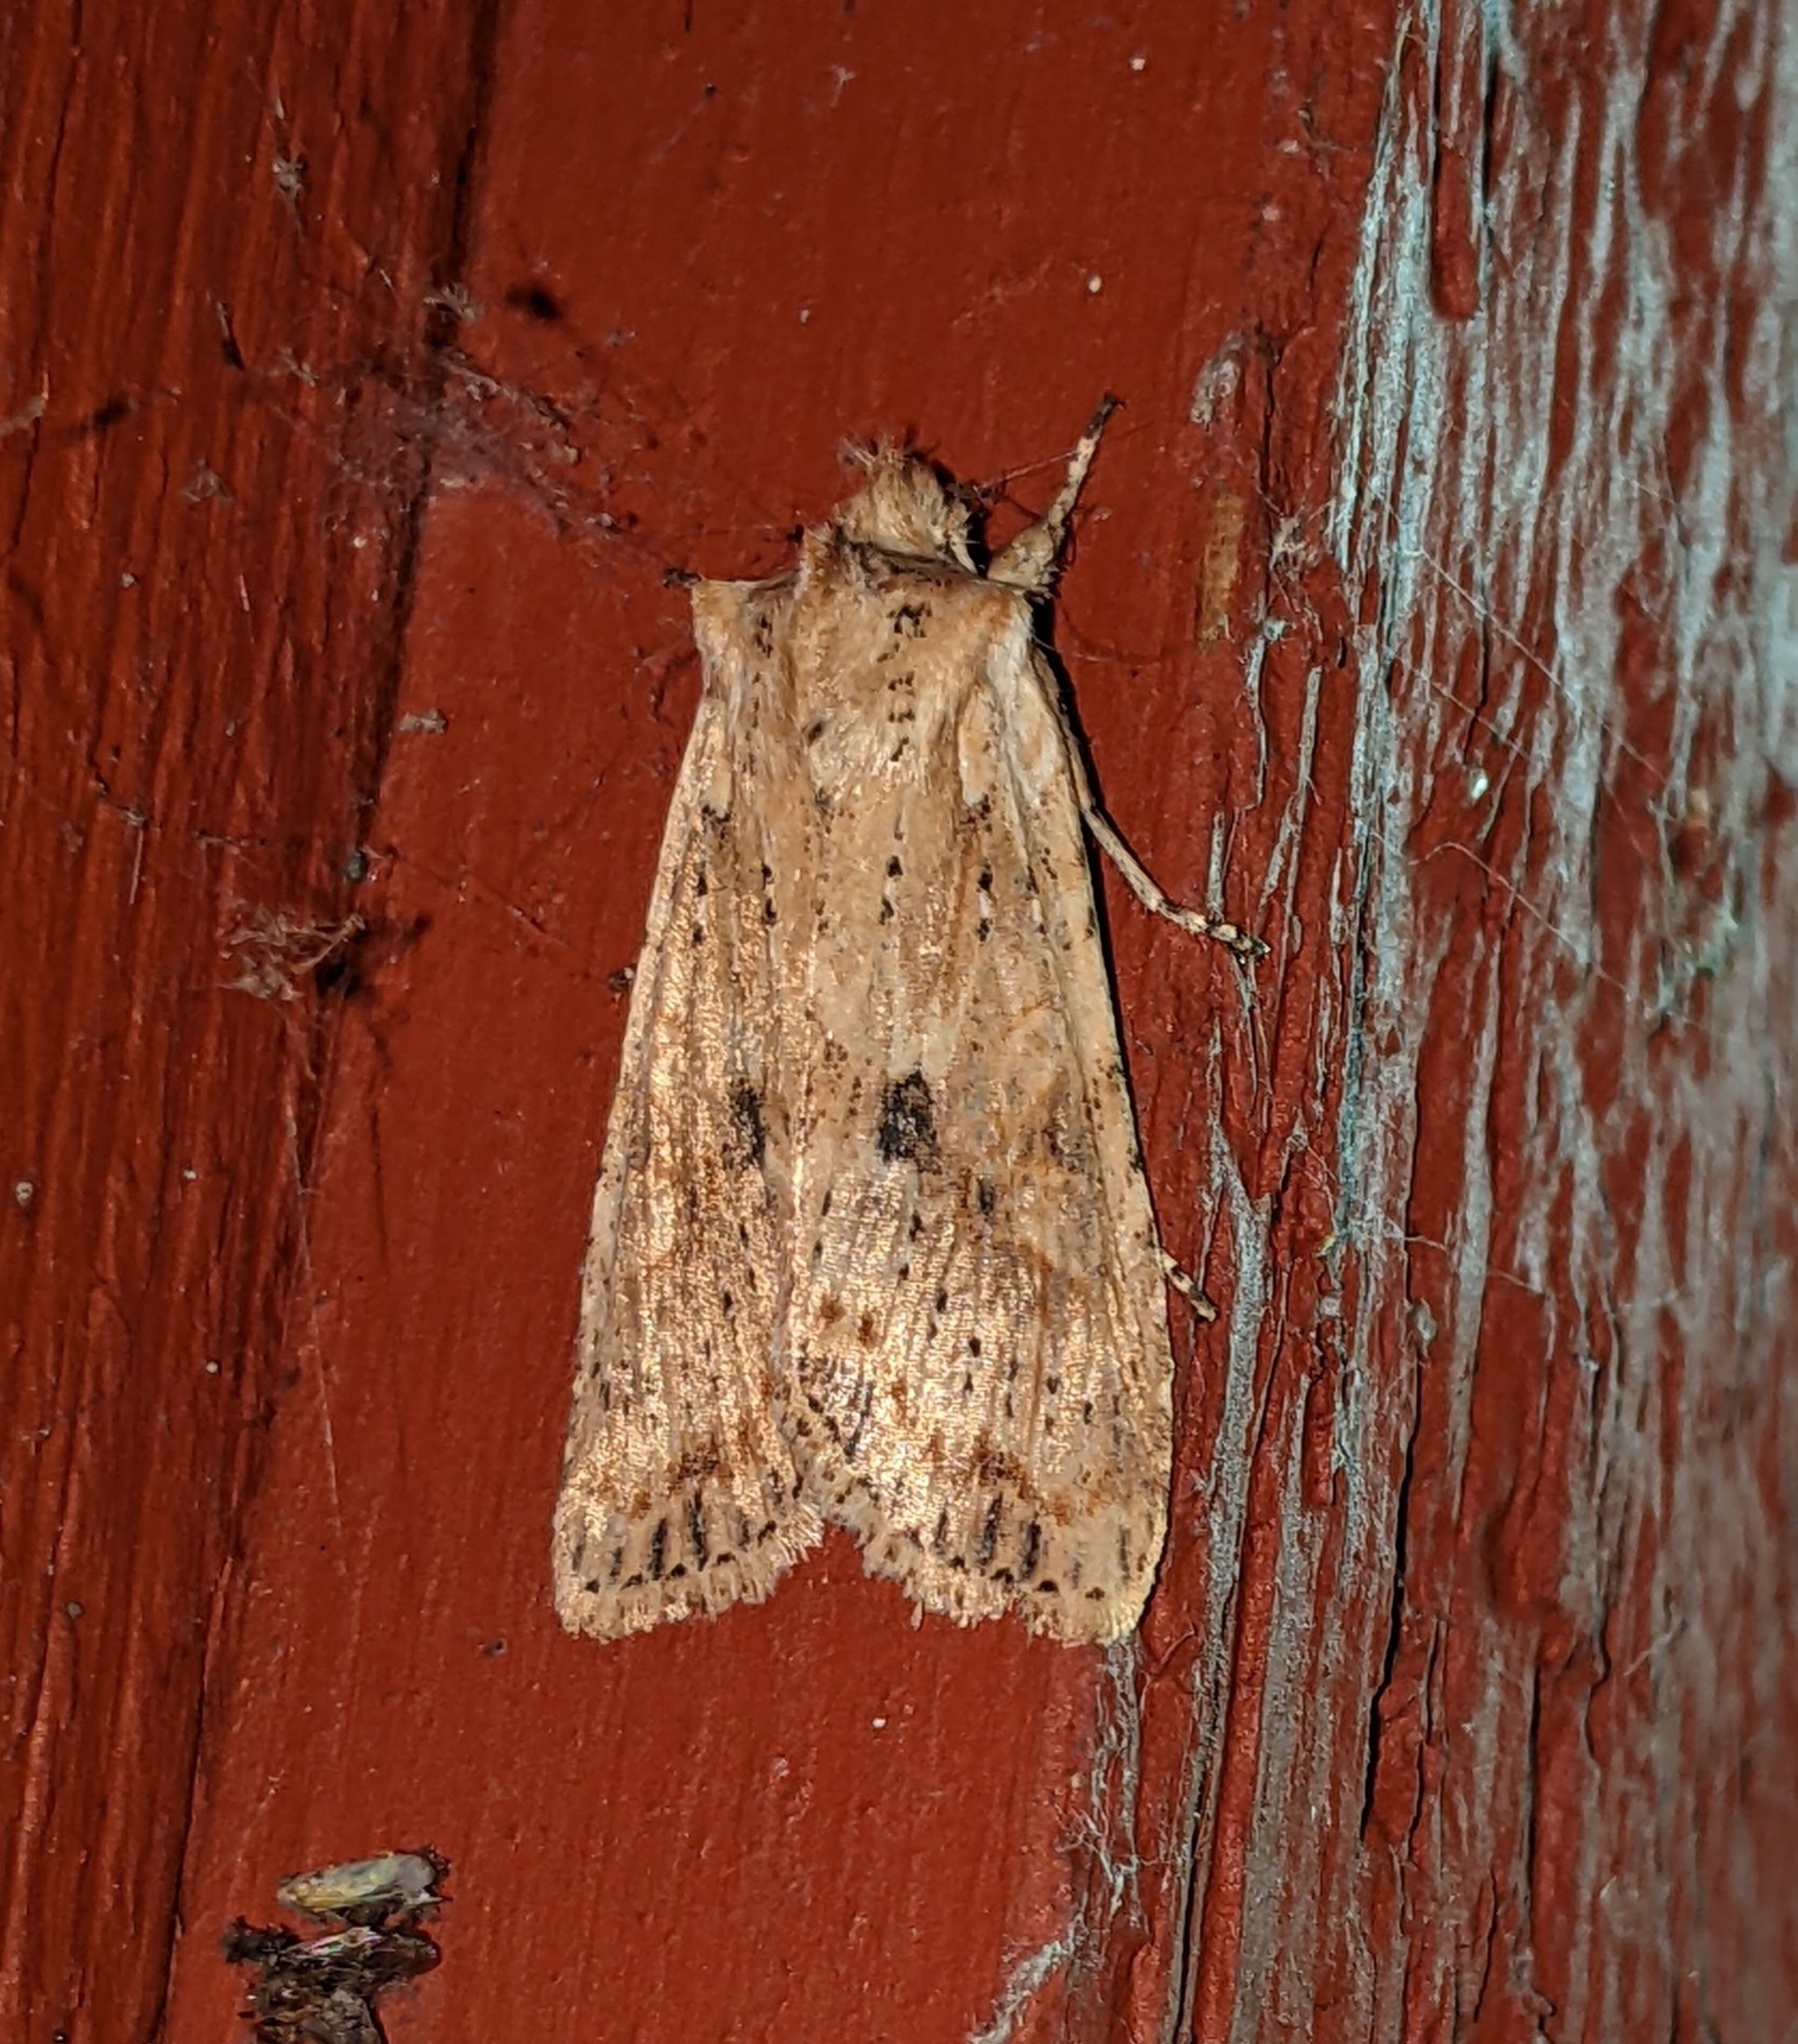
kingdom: Animalia
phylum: Arthropoda
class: Insecta
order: Lepidoptera
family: Noctuidae
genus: Lithophane
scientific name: Lithophane innominata
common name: Nameless pinion moth
